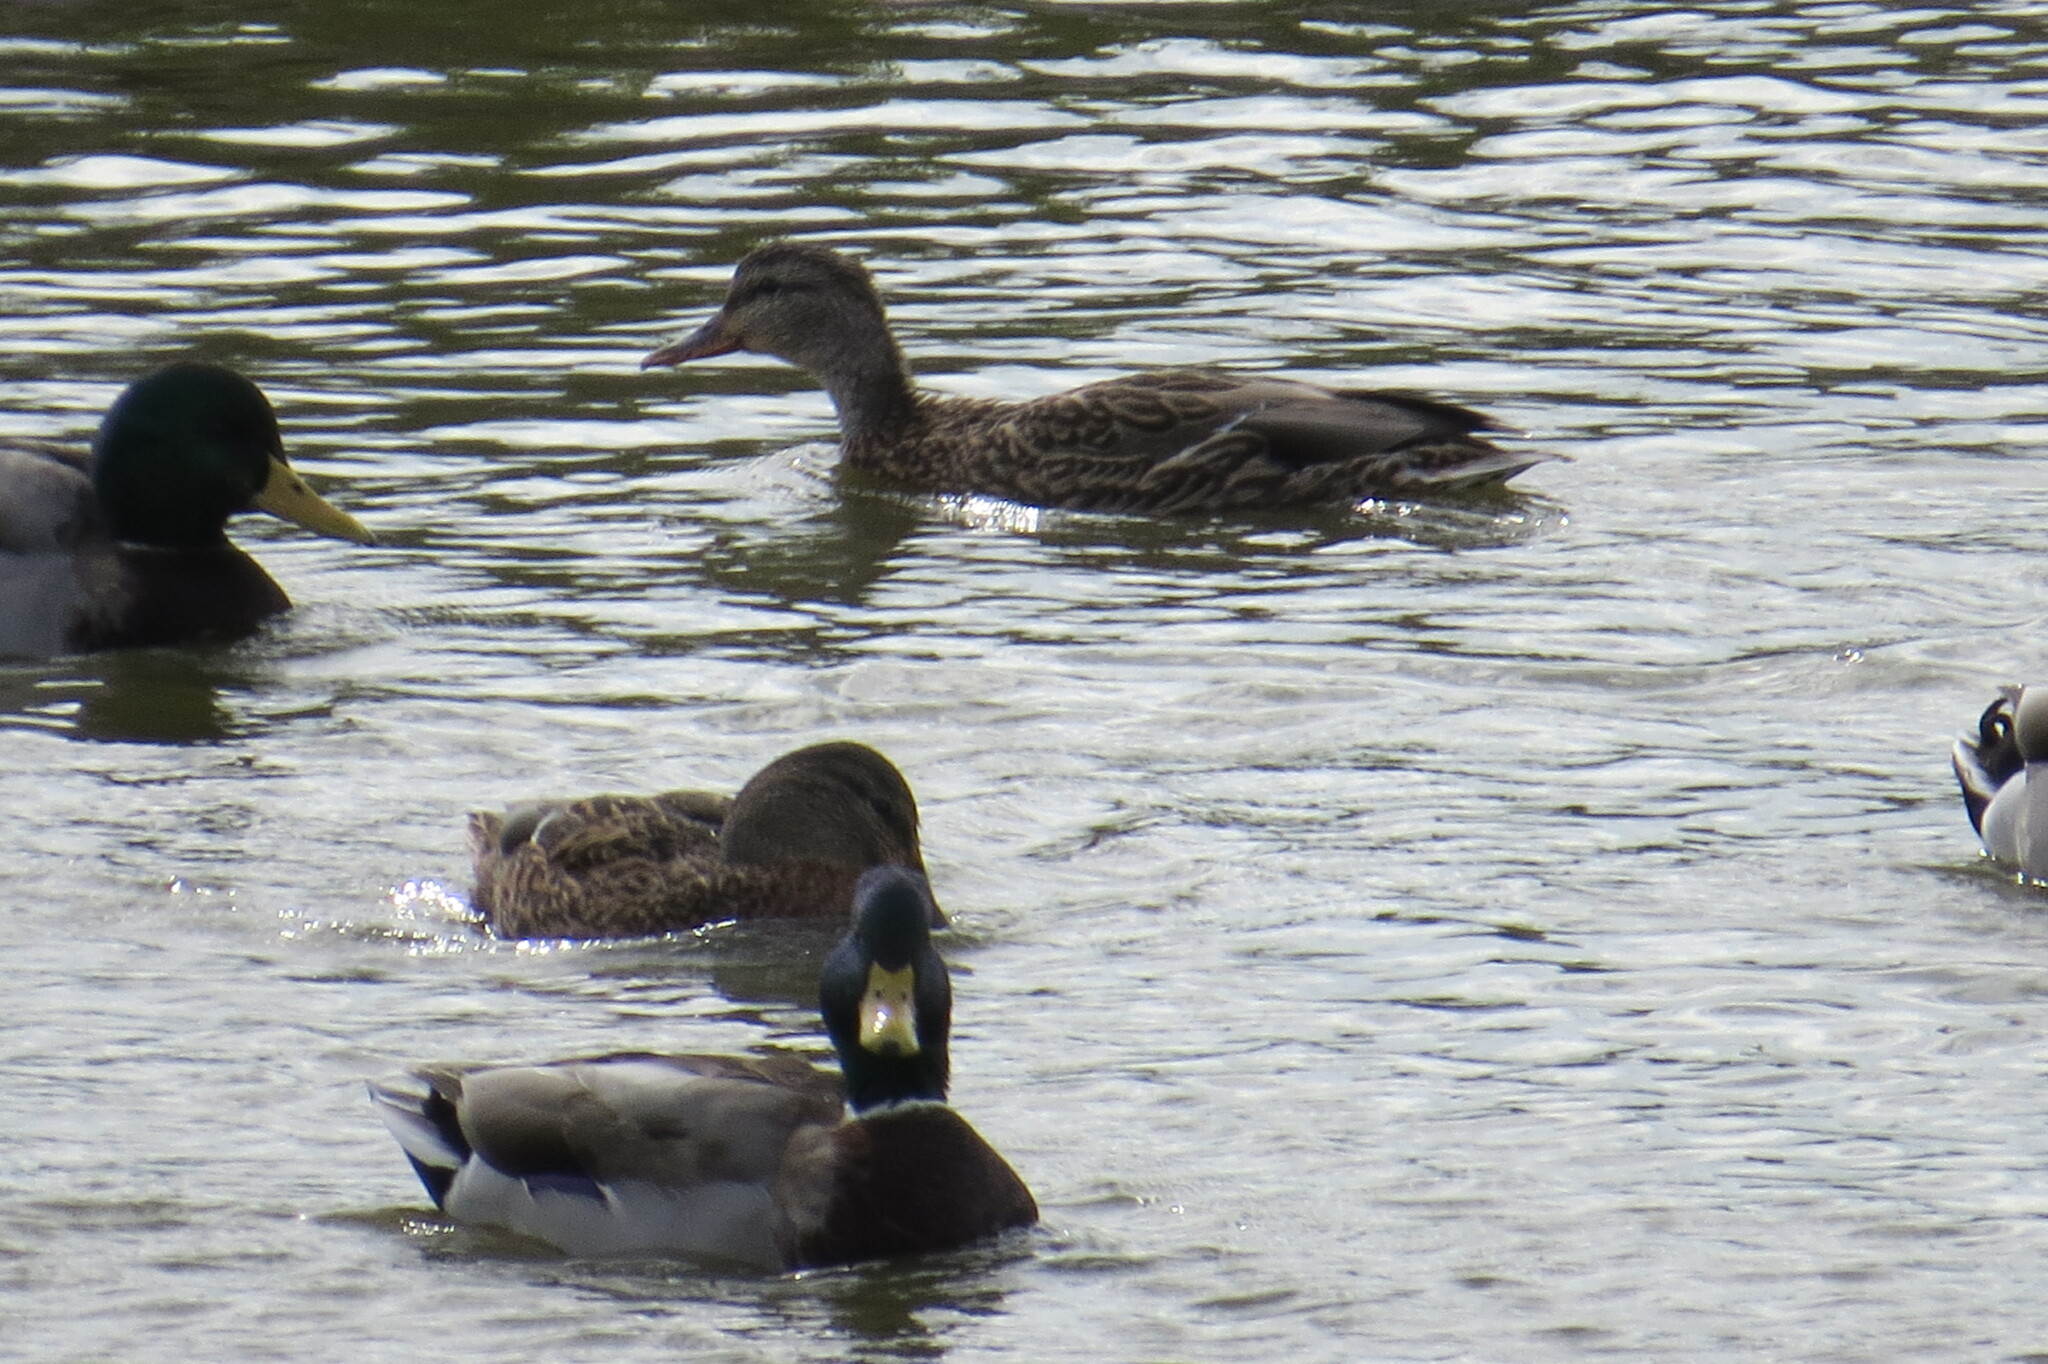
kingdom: Animalia
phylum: Chordata
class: Aves
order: Anseriformes
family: Anatidae
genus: Anas
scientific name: Anas platyrhynchos
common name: Mallard
